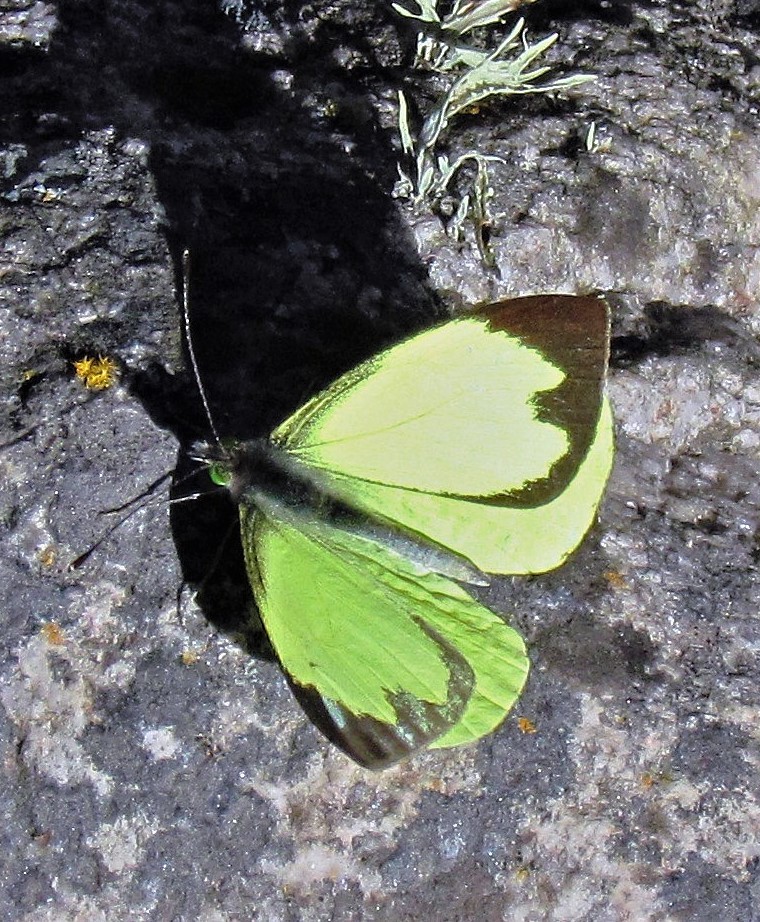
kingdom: Animalia
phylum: Arthropoda
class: Insecta
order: Lepidoptera
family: Pieridae
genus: Leptophobia
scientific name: Leptophobia diaguita
